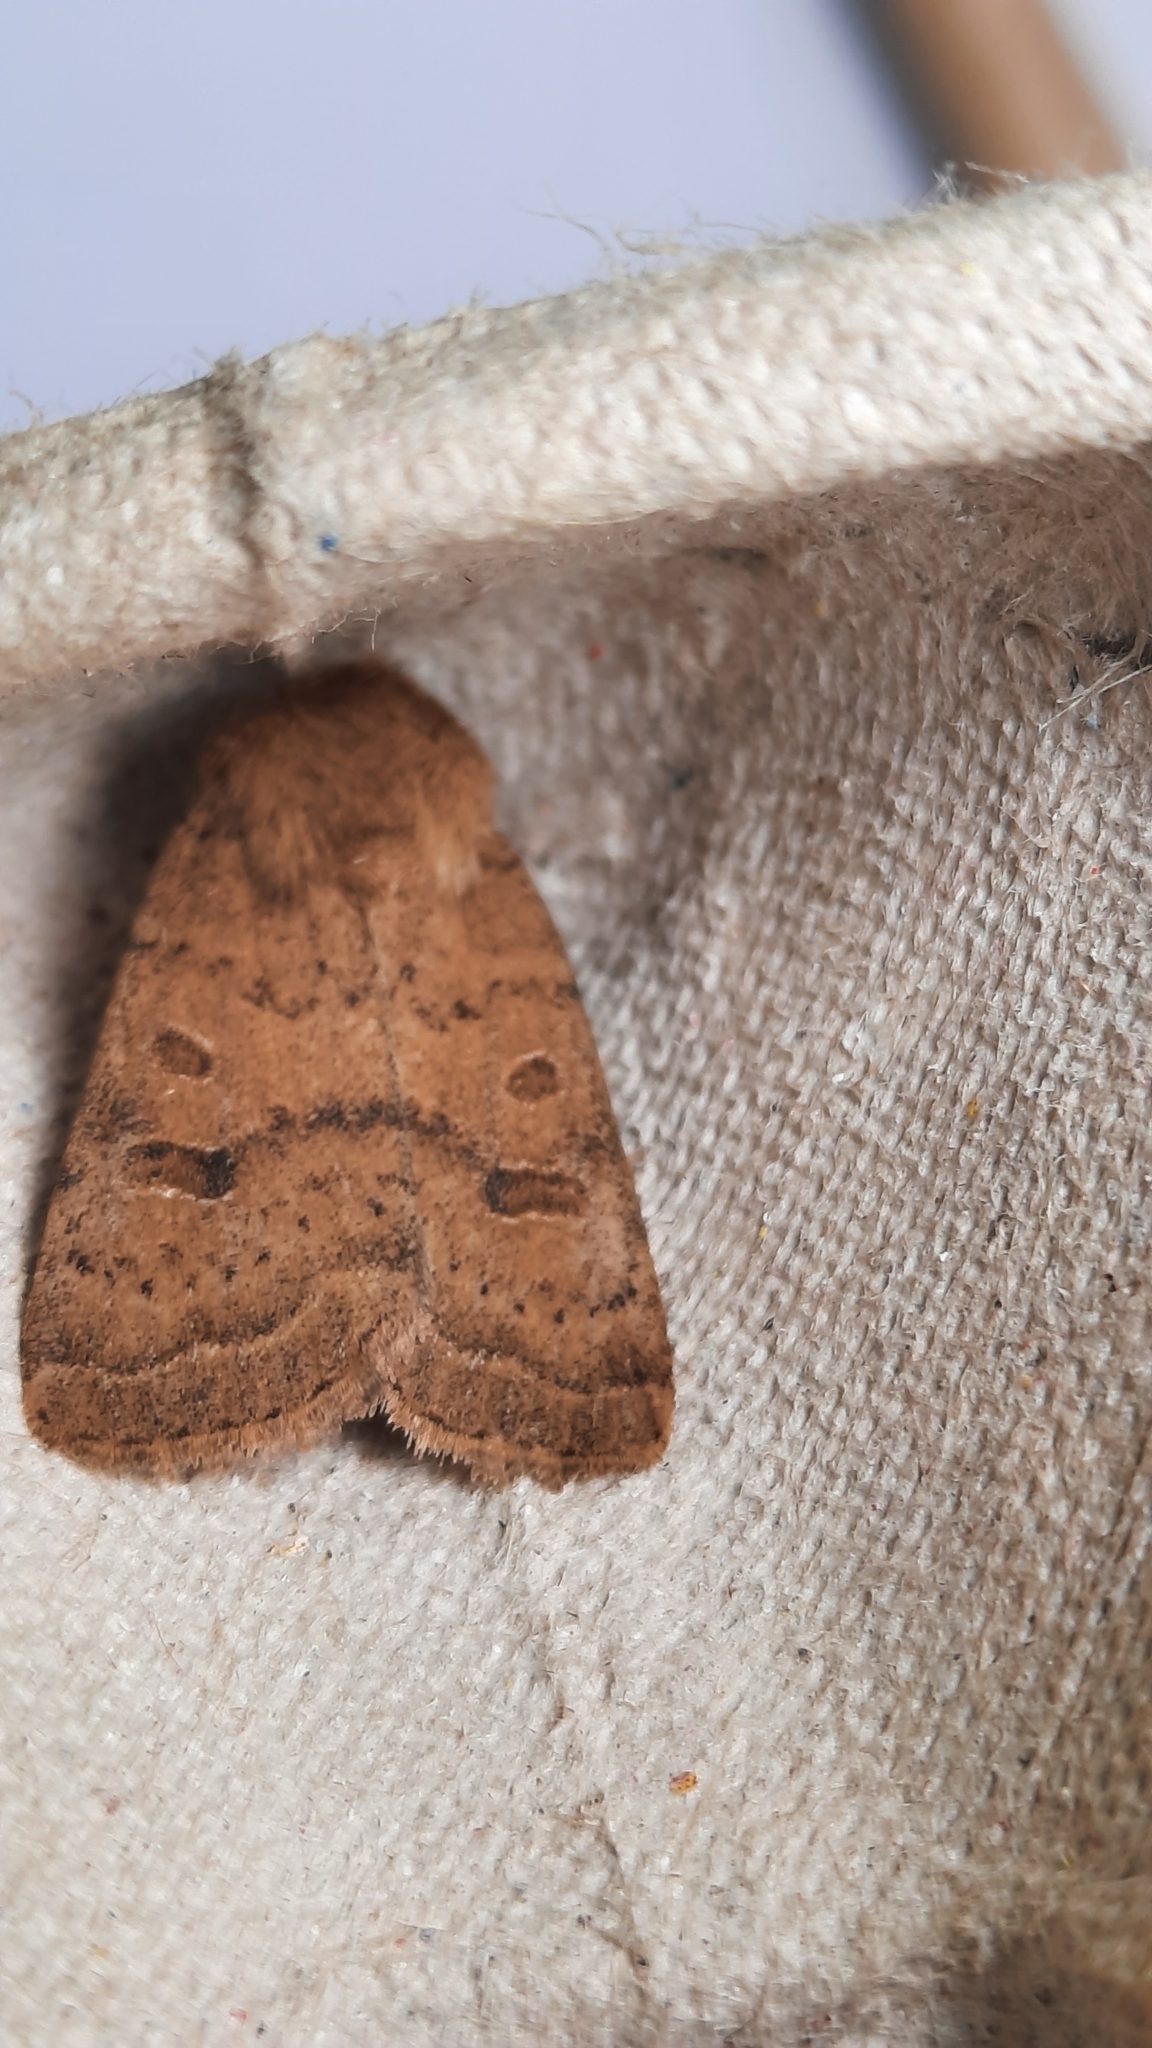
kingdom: Animalia
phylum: Arthropoda
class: Insecta
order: Lepidoptera
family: Noctuidae
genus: Hoplodrina
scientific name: Hoplodrina octogenaria
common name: Uncertain
